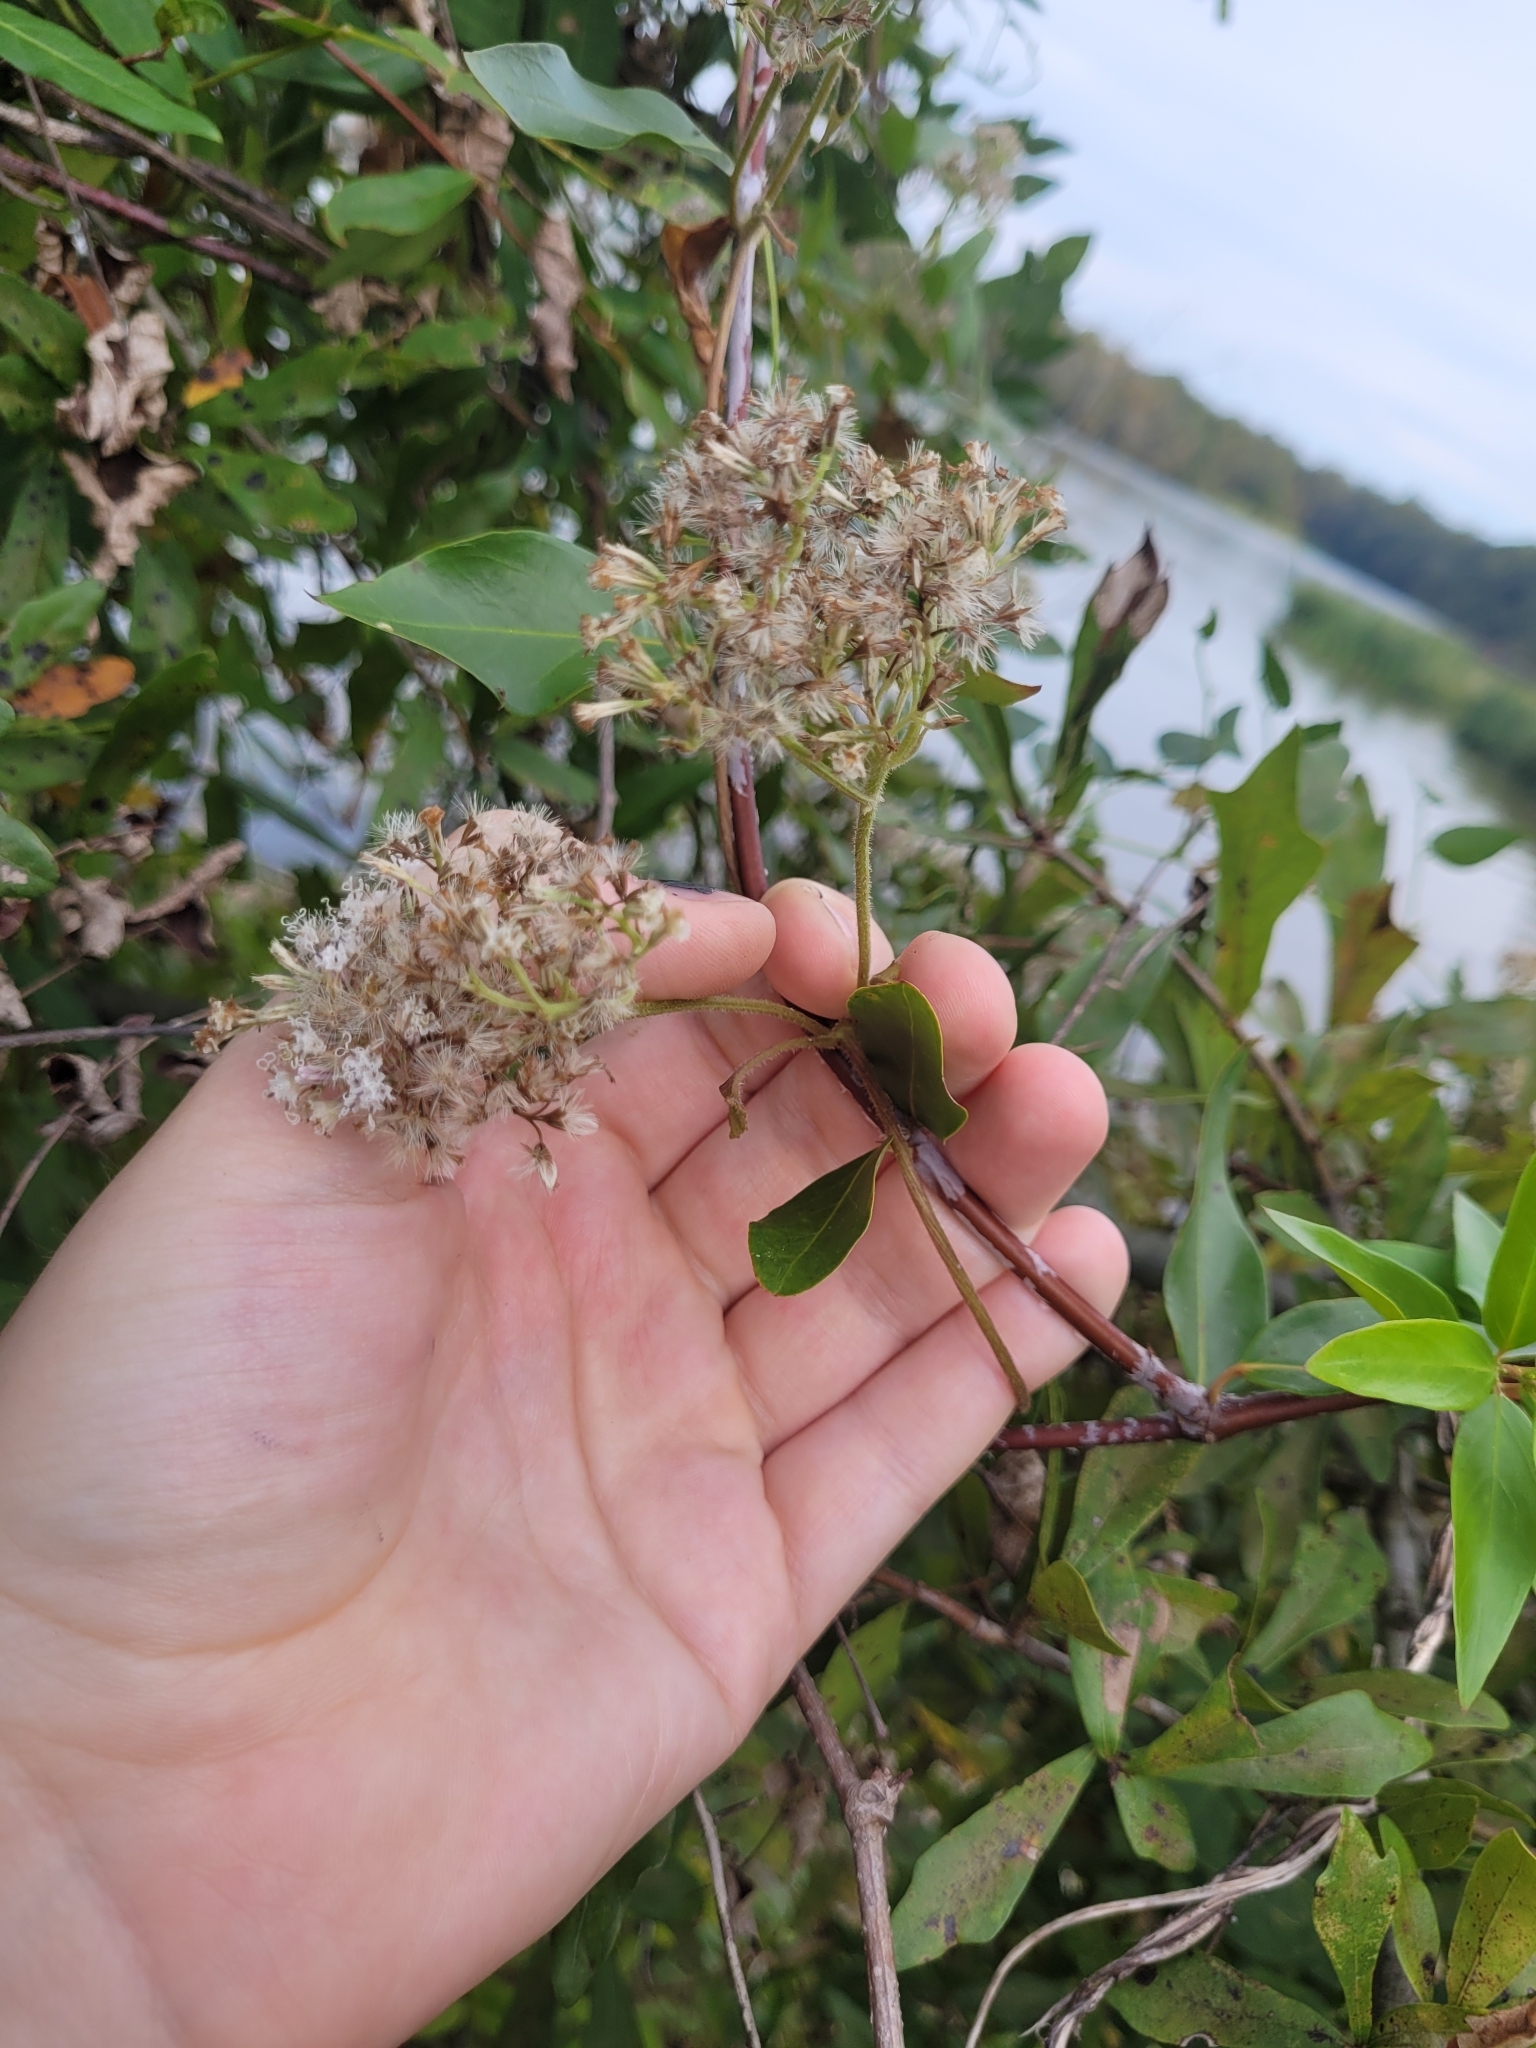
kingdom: Plantae
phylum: Tracheophyta
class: Magnoliopsida
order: Asterales
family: Asteraceae
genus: Mikania
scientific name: Mikania scandens
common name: Climbing hempvine
